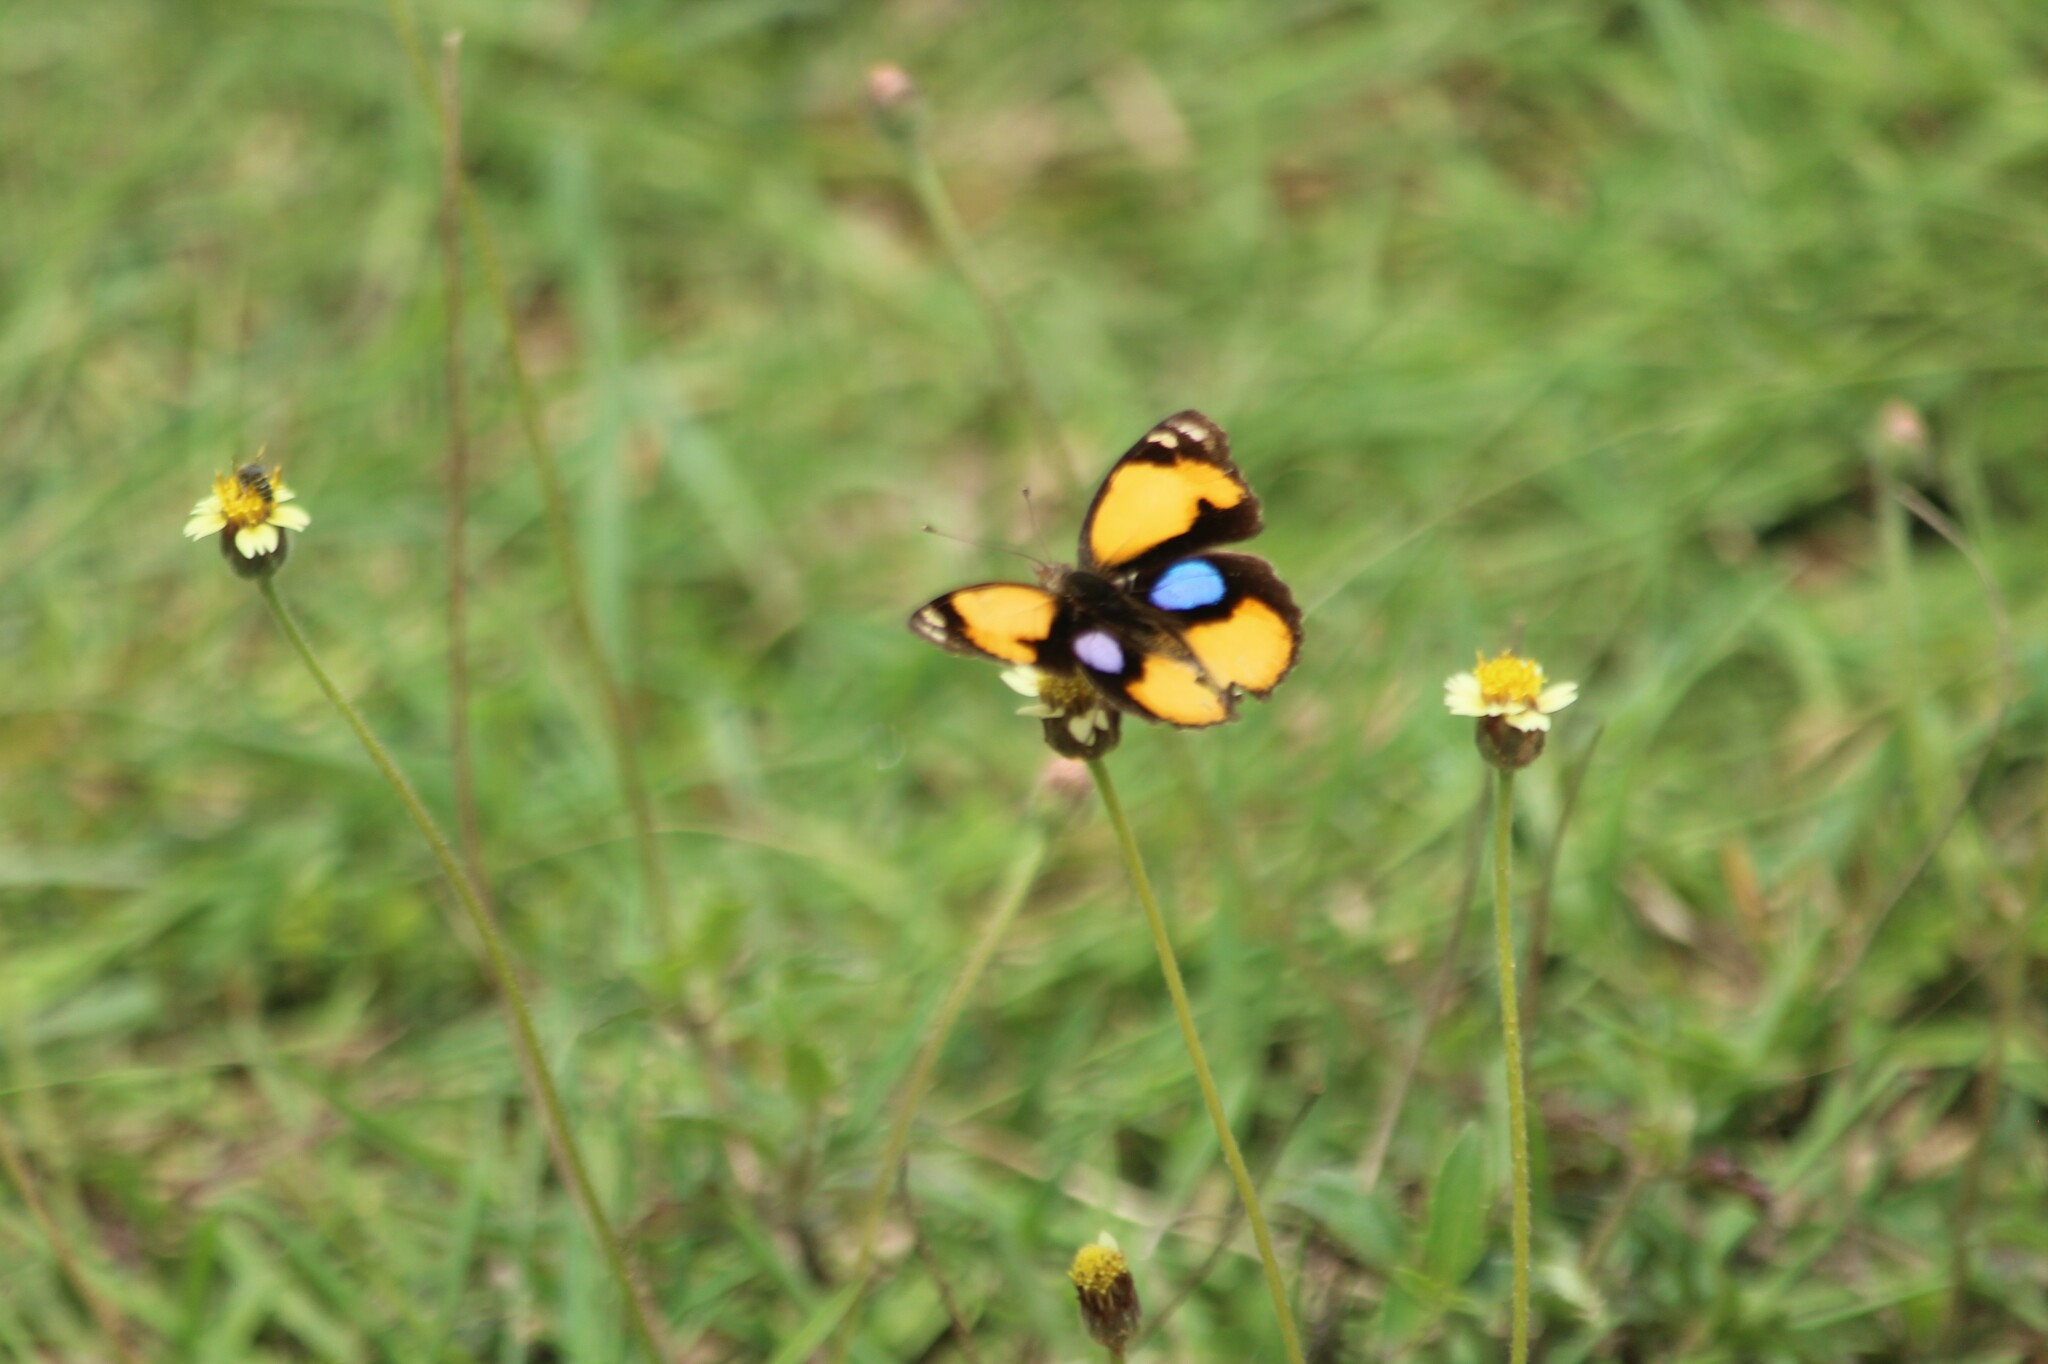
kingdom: Animalia
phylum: Arthropoda
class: Insecta
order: Lepidoptera
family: Nymphalidae
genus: Junonia
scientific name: Junonia hierta
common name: Yellow pansy
